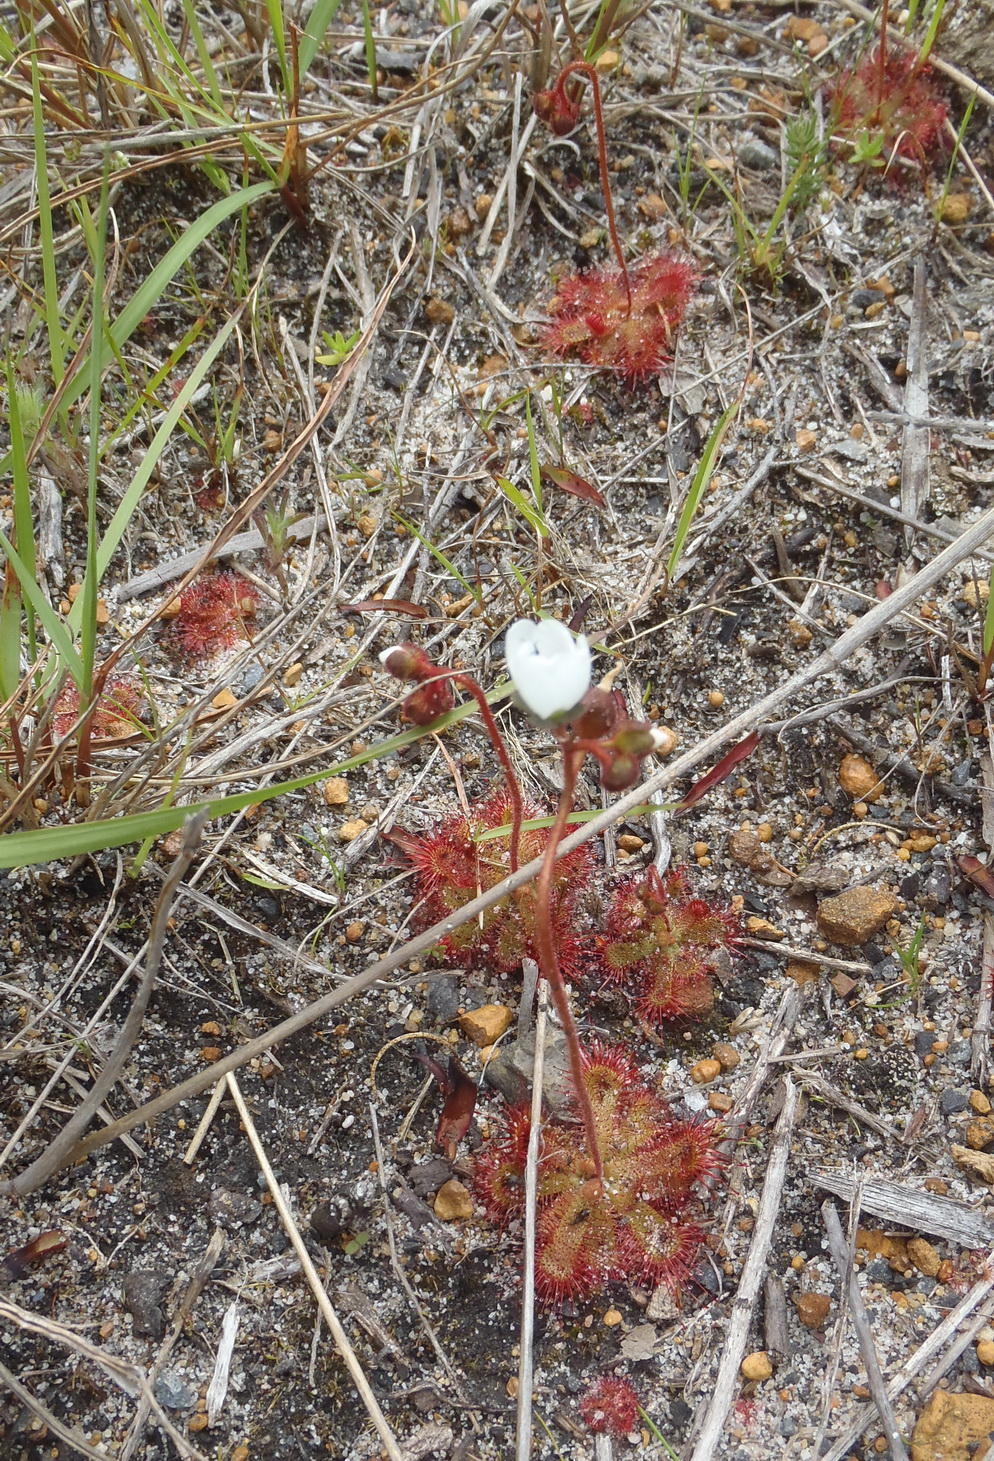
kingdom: Plantae
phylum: Tracheophyta
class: Magnoliopsida
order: Caryophyllales
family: Droseraceae
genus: Drosera
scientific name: Drosera trinervia
